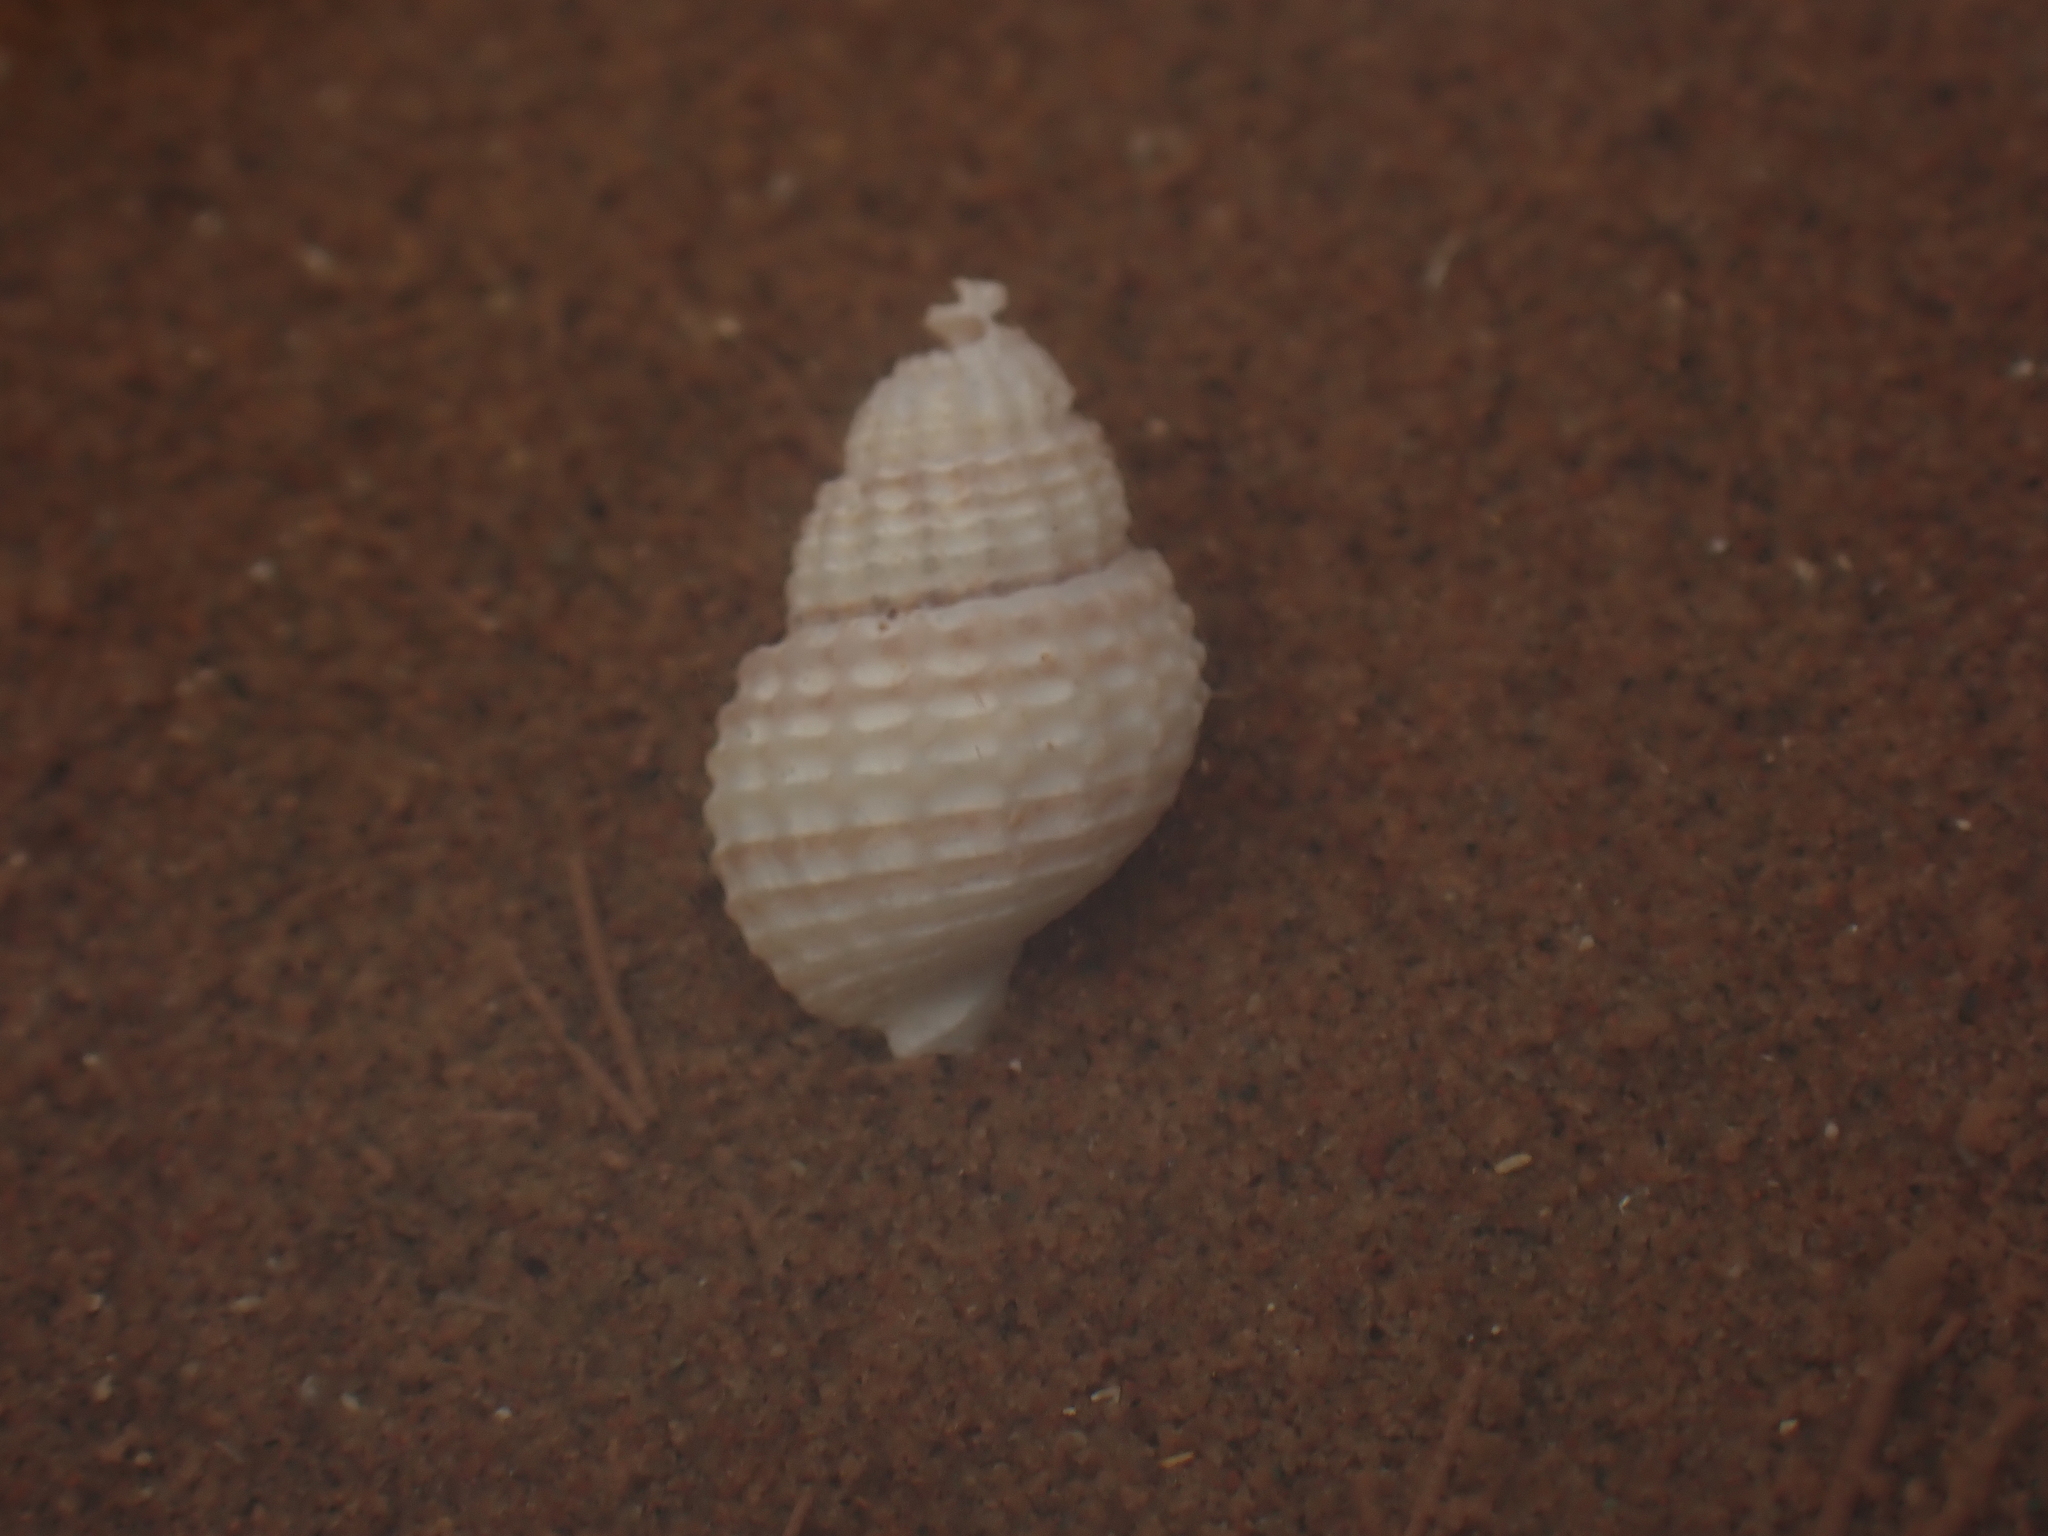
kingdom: Animalia
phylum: Mollusca
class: Gastropoda
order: Neogastropoda
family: Nassariidae
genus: Ilyanassa
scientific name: Ilyanassa trivittata
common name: Three-line mudsnail
